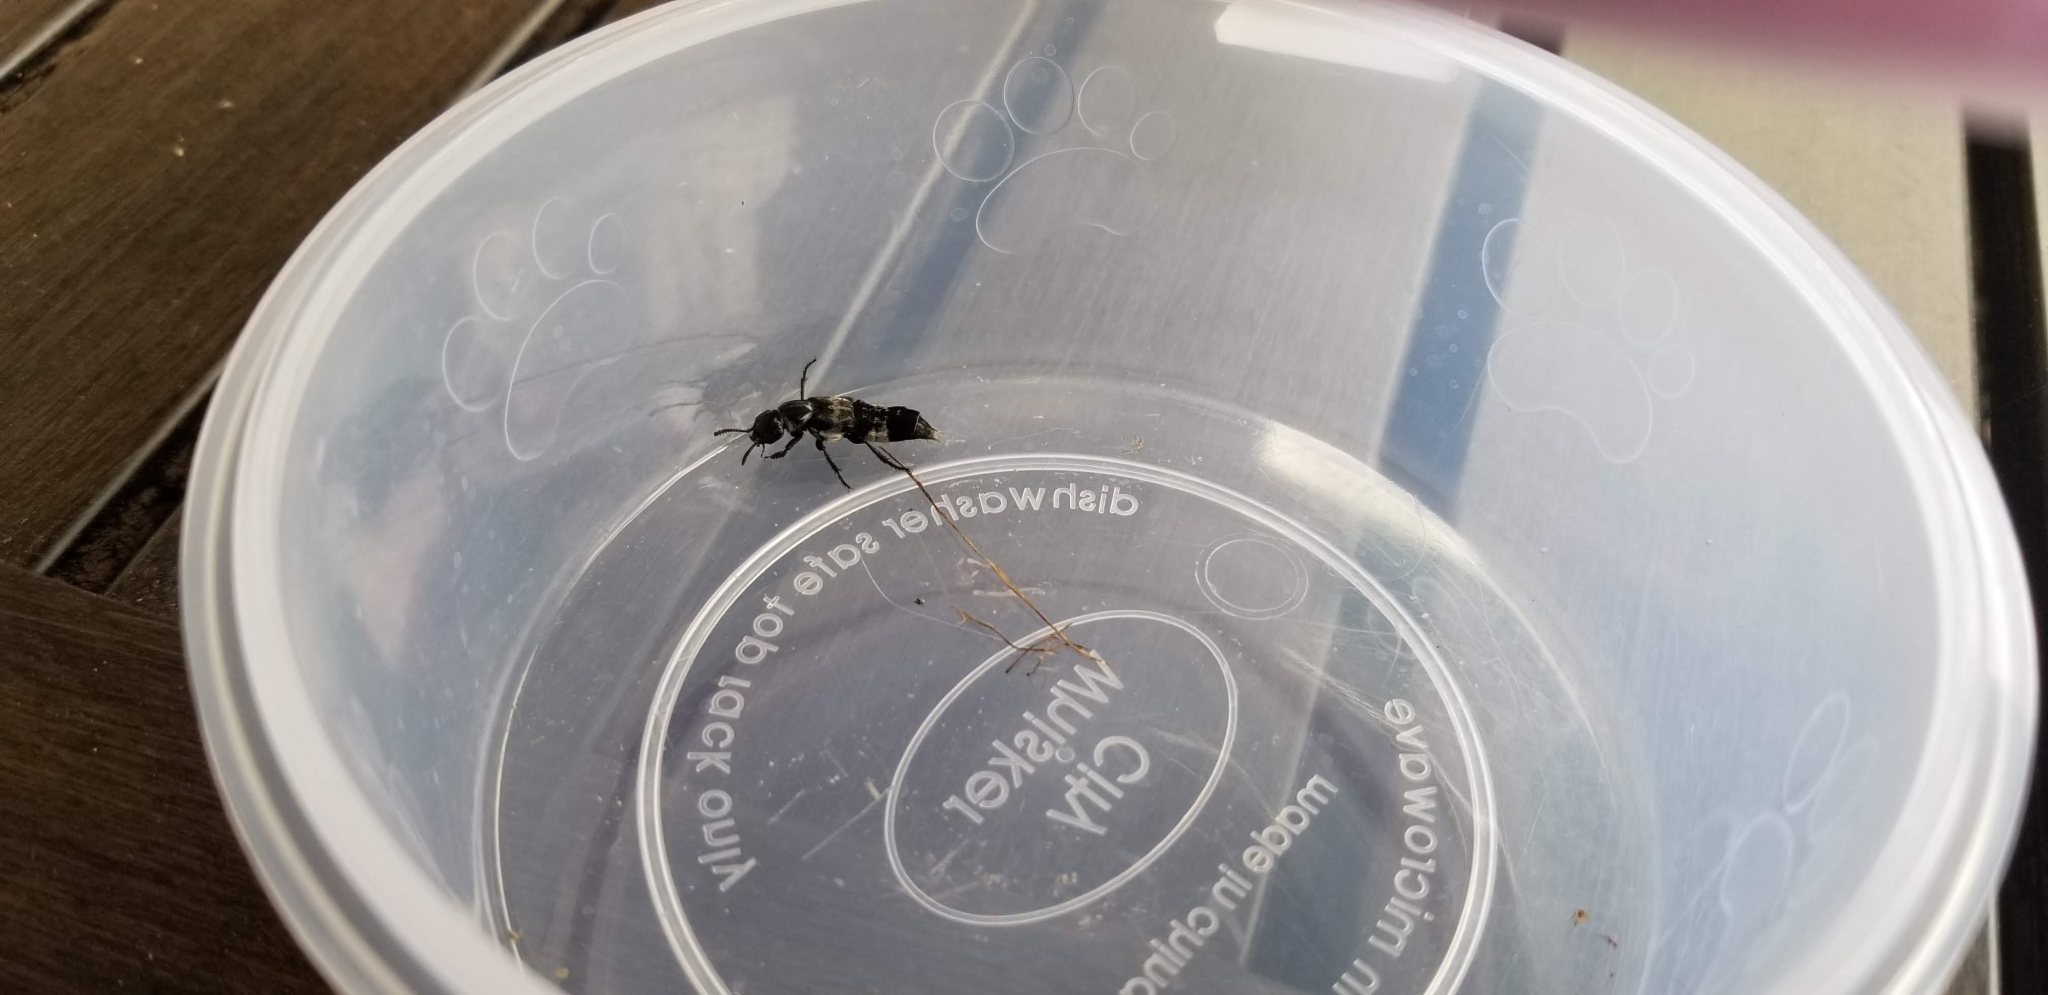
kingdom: Animalia
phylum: Arthropoda
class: Insecta
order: Coleoptera
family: Staphylinidae
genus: Creophilus
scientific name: Creophilus maxillosus
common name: Hairy rove beetle
